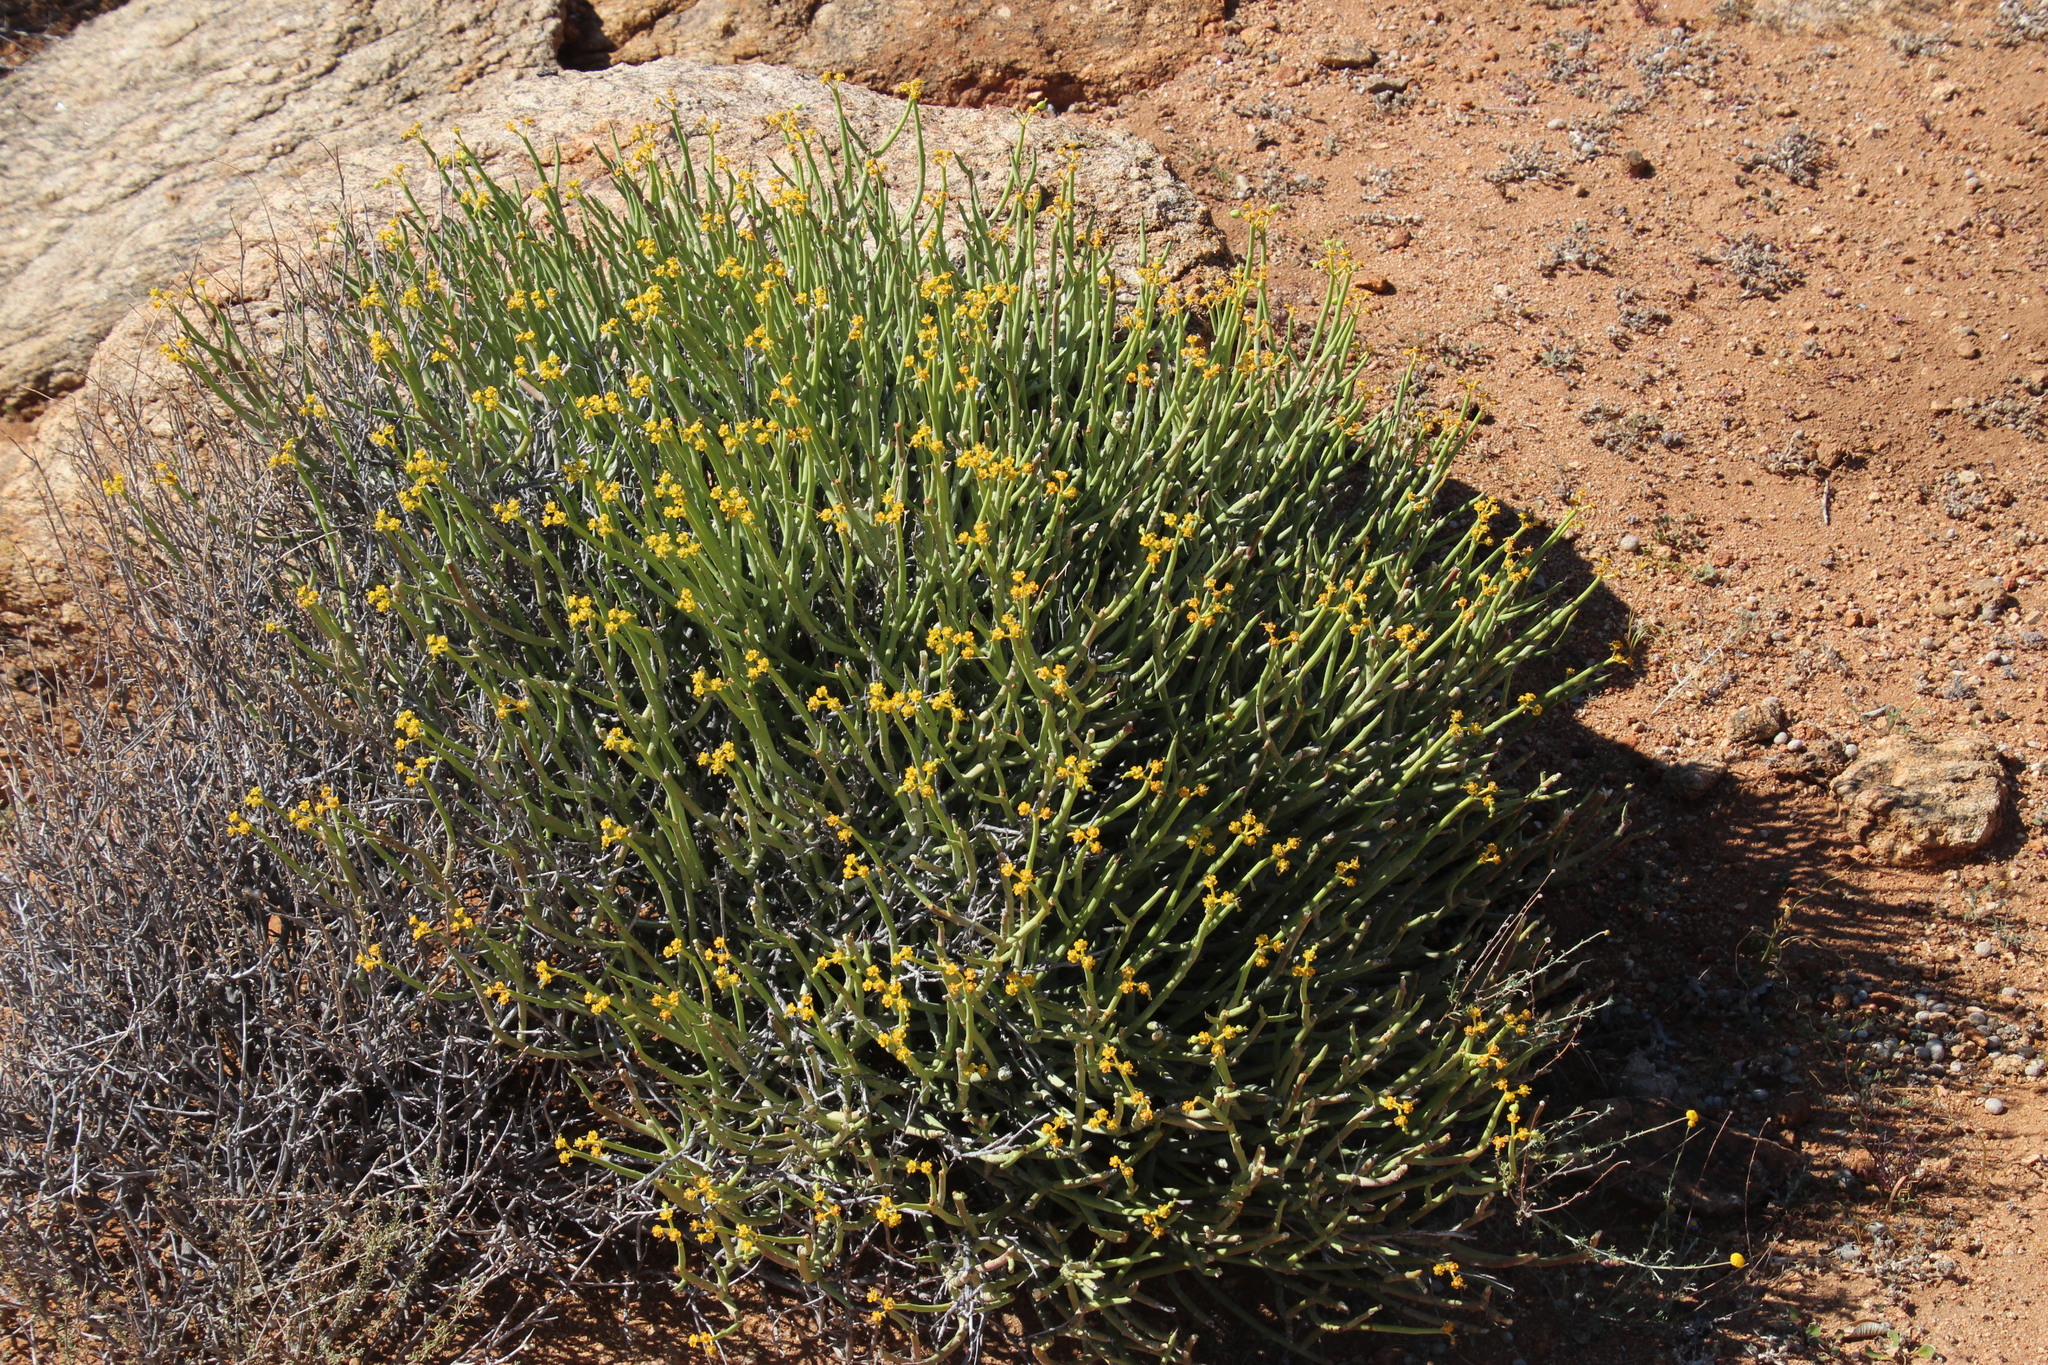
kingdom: Plantae
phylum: Tracheophyta
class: Magnoliopsida
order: Malpighiales
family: Euphorbiaceae
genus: Euphorbia
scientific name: Euphorbia mauritanica
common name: Jackal's-food
